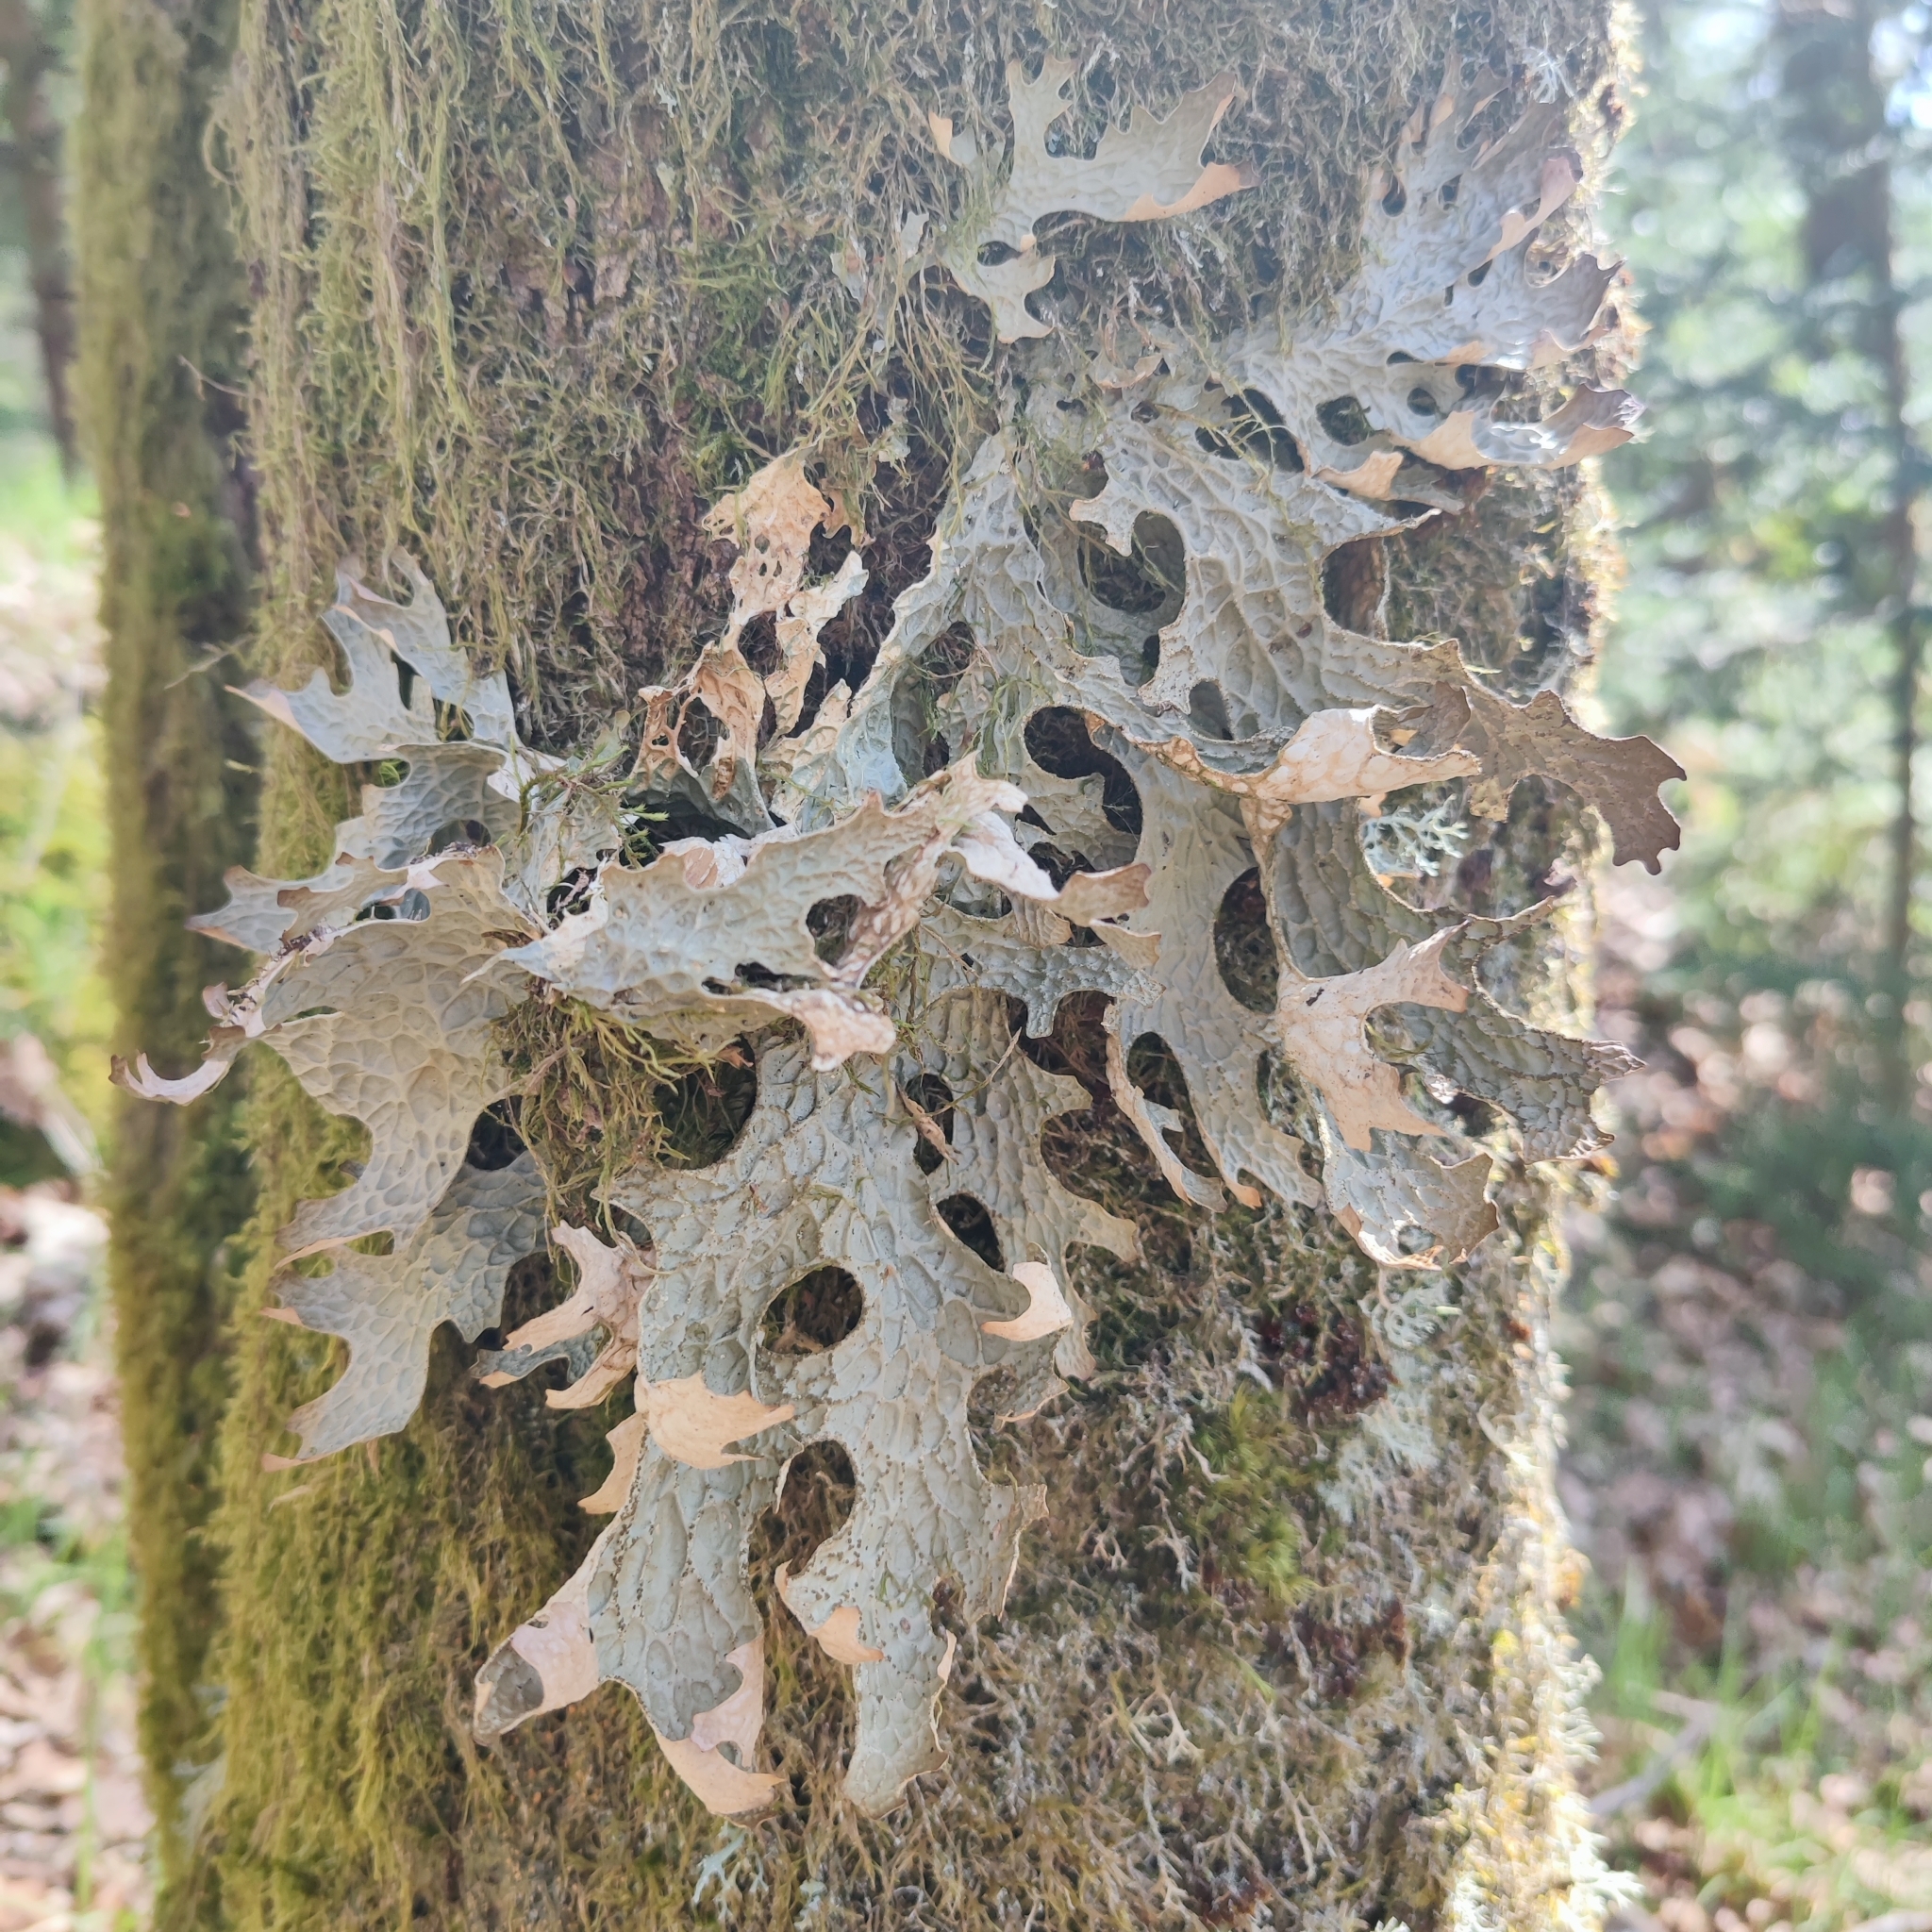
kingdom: Fungi
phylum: Ascomycota
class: Lecanoromycetes
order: Peltigerales
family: Lobariaceae
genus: Lobaria
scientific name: Lobaria pulmonaria
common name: Lungwort
